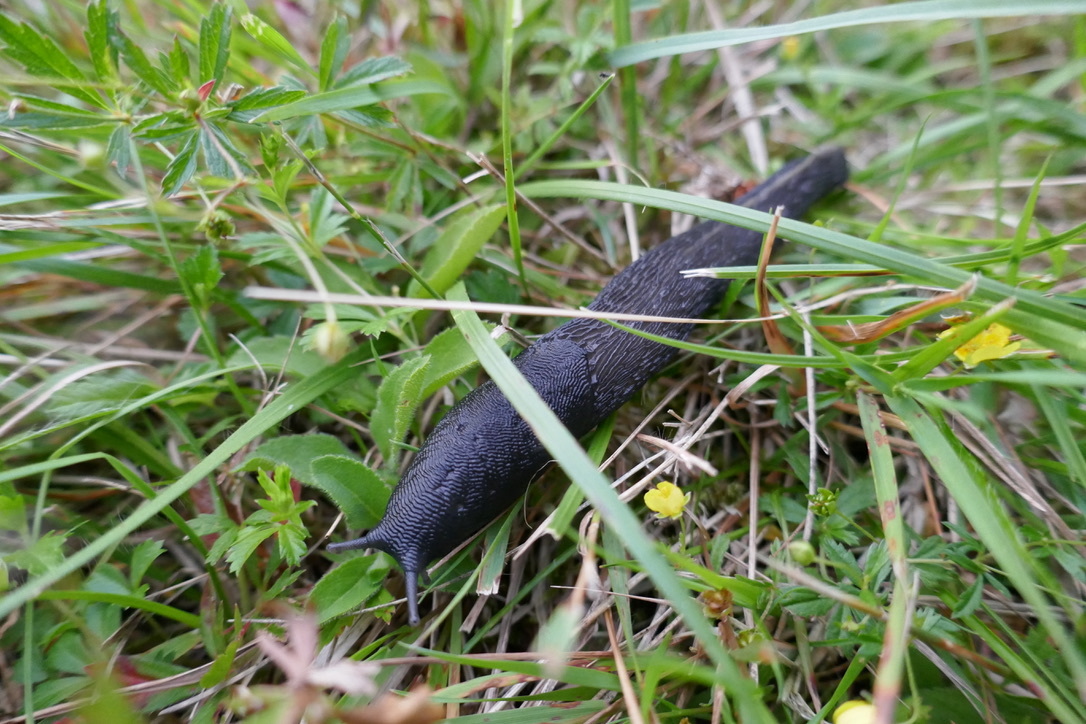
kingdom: Animalia
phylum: Mollusca
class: Gastropoda
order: Stylommatophora
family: Limacidae
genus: Limax
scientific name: Limax cinereoniger
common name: Ash-black slug
